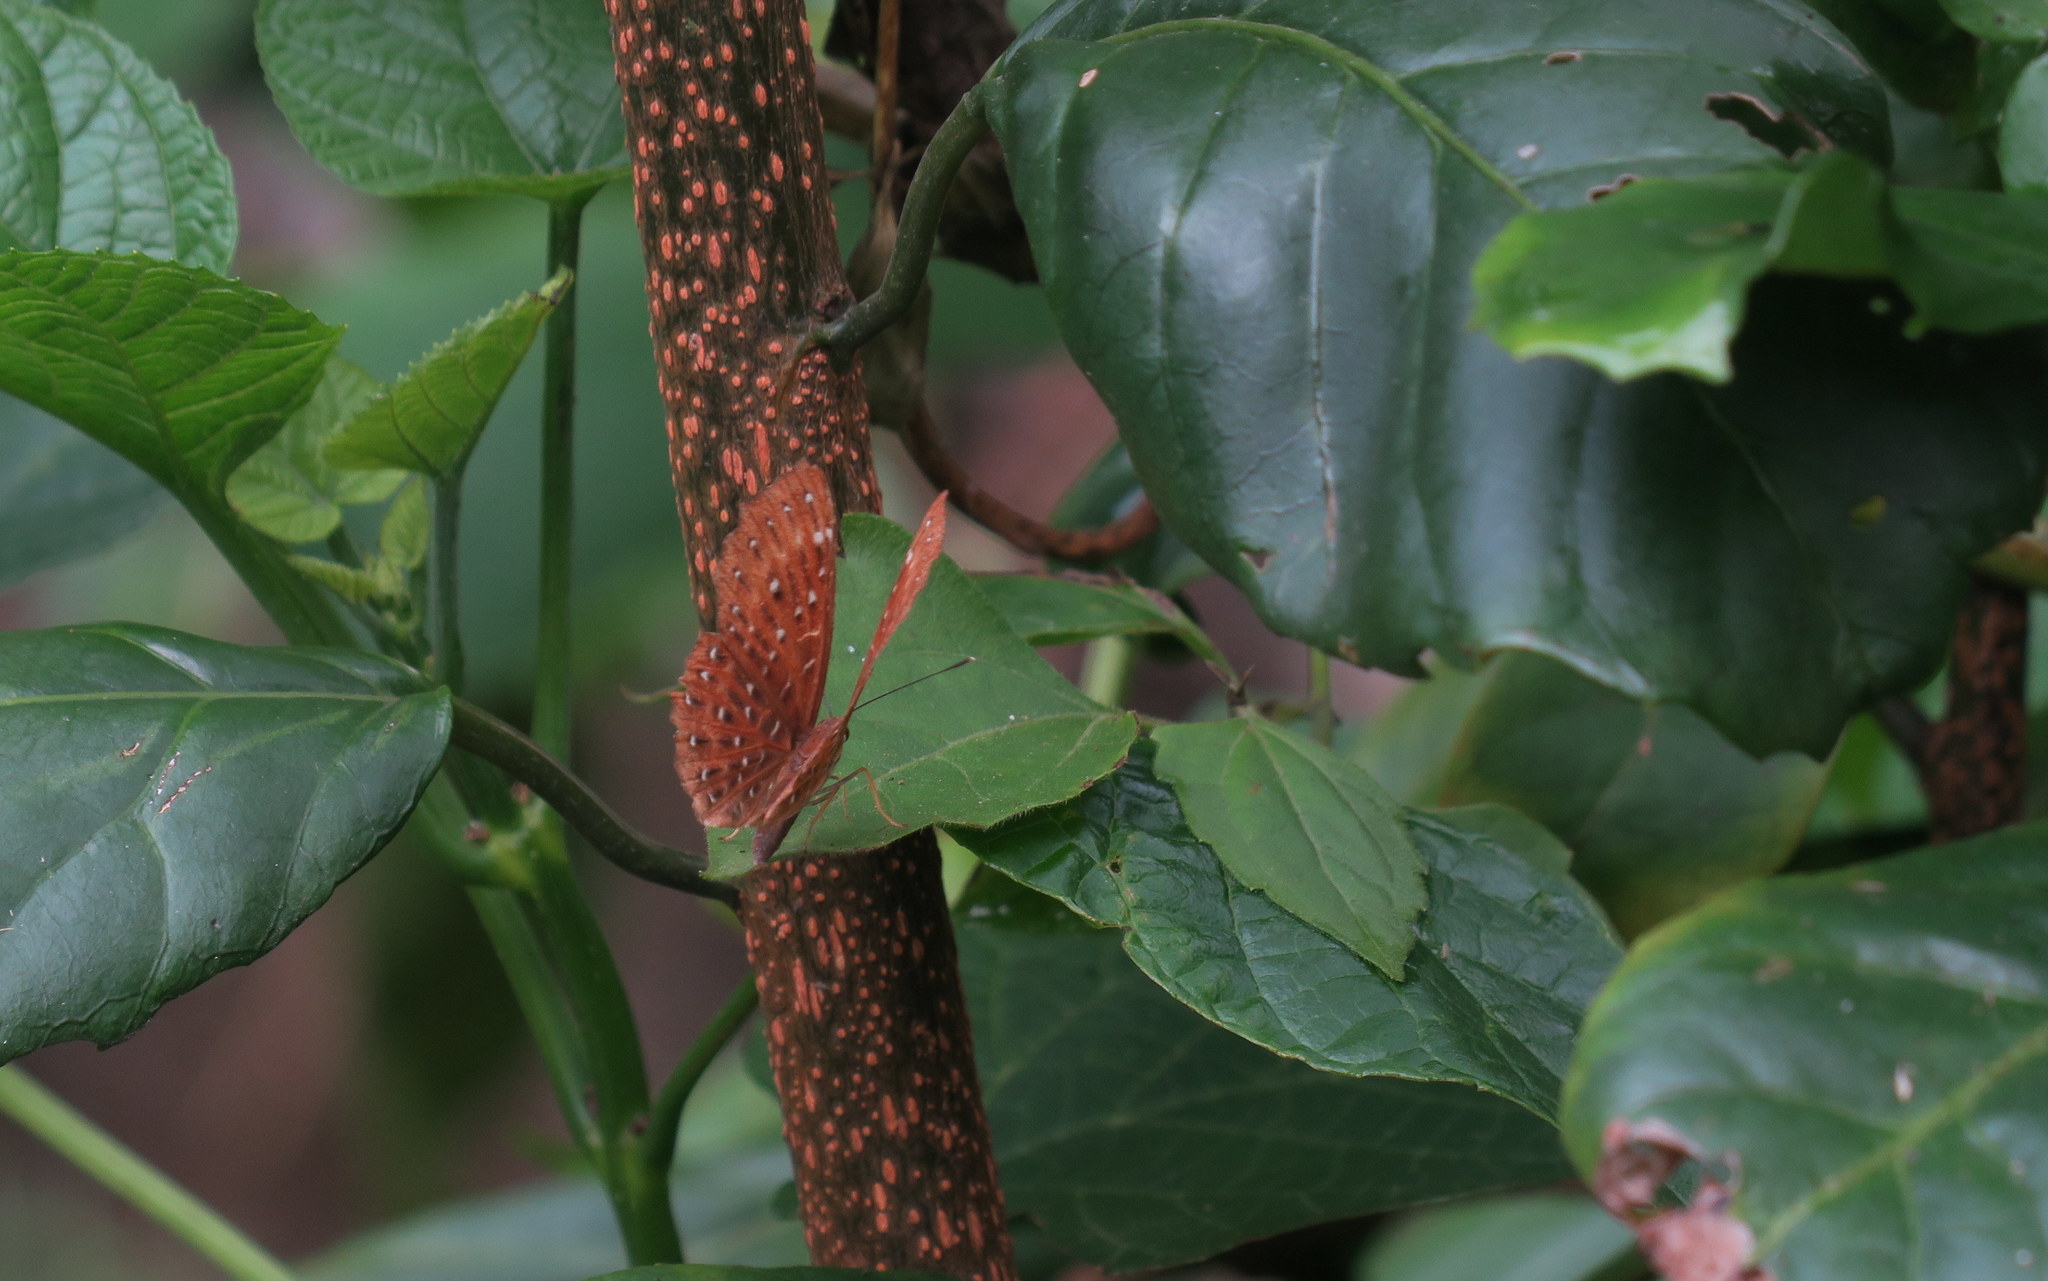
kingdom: Animalia
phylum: Arthropoda
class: Insecta
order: Lepidoptera
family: Riodinidae
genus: Zemeros
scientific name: Zemeros flegyas
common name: Punchinello
